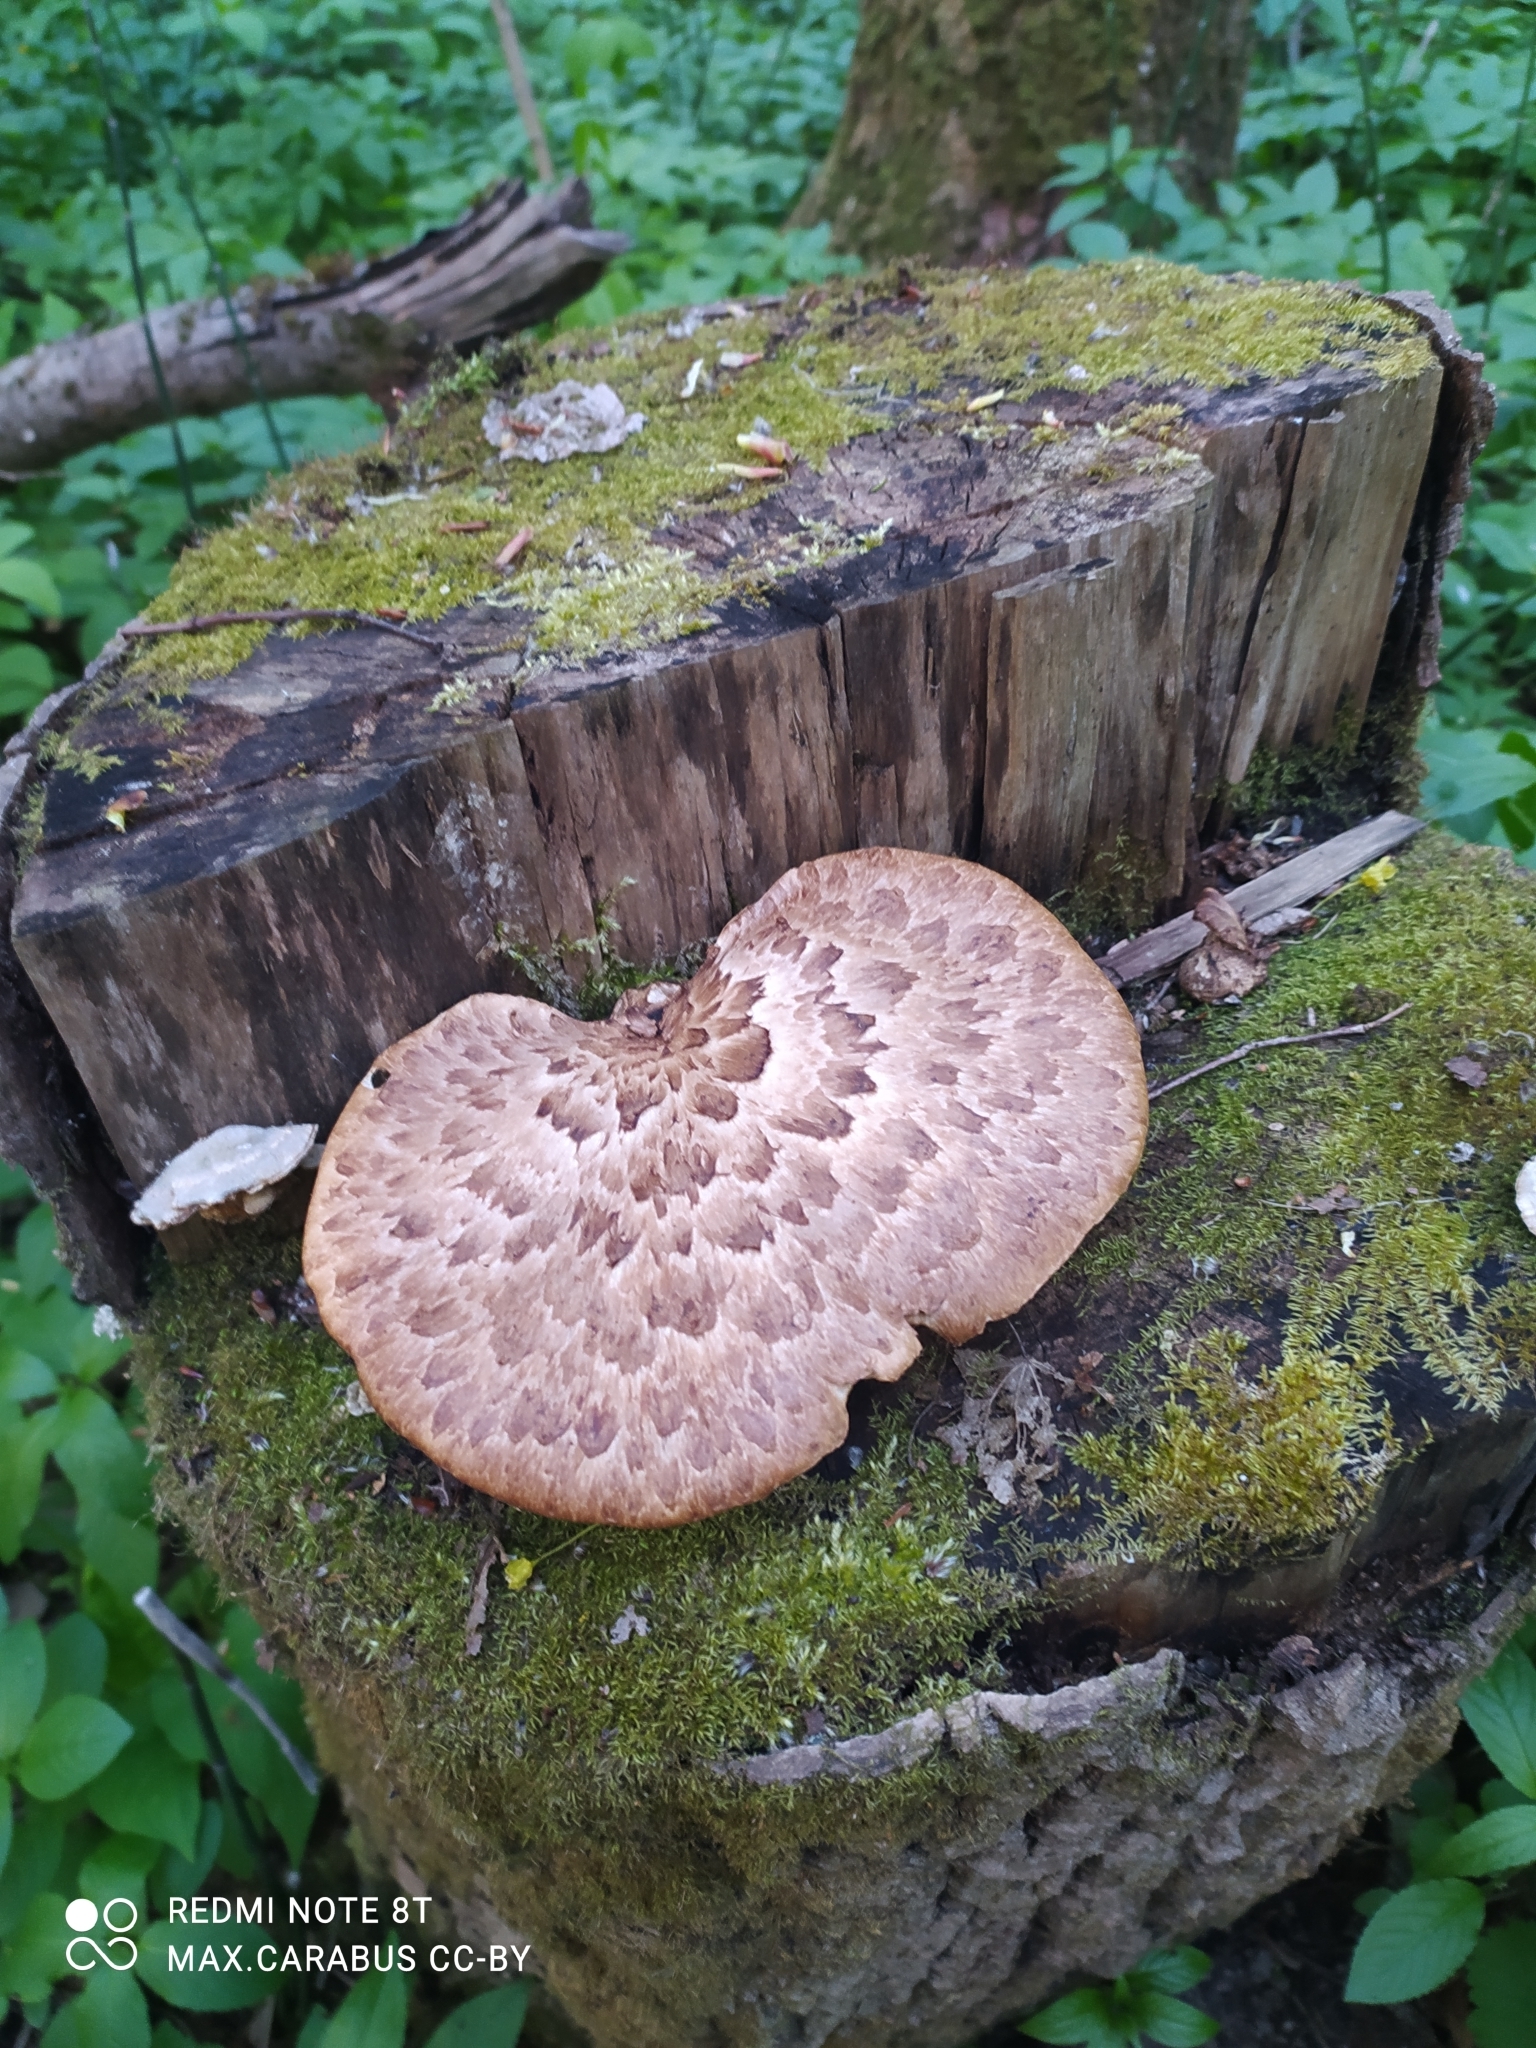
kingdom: Fungi
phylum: Basidiomycota
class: Agaricomycetes
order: Polyporales
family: Polyporaceae
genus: Cerioporus
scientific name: Cerioporus squamosus
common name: Dryad's saddle
